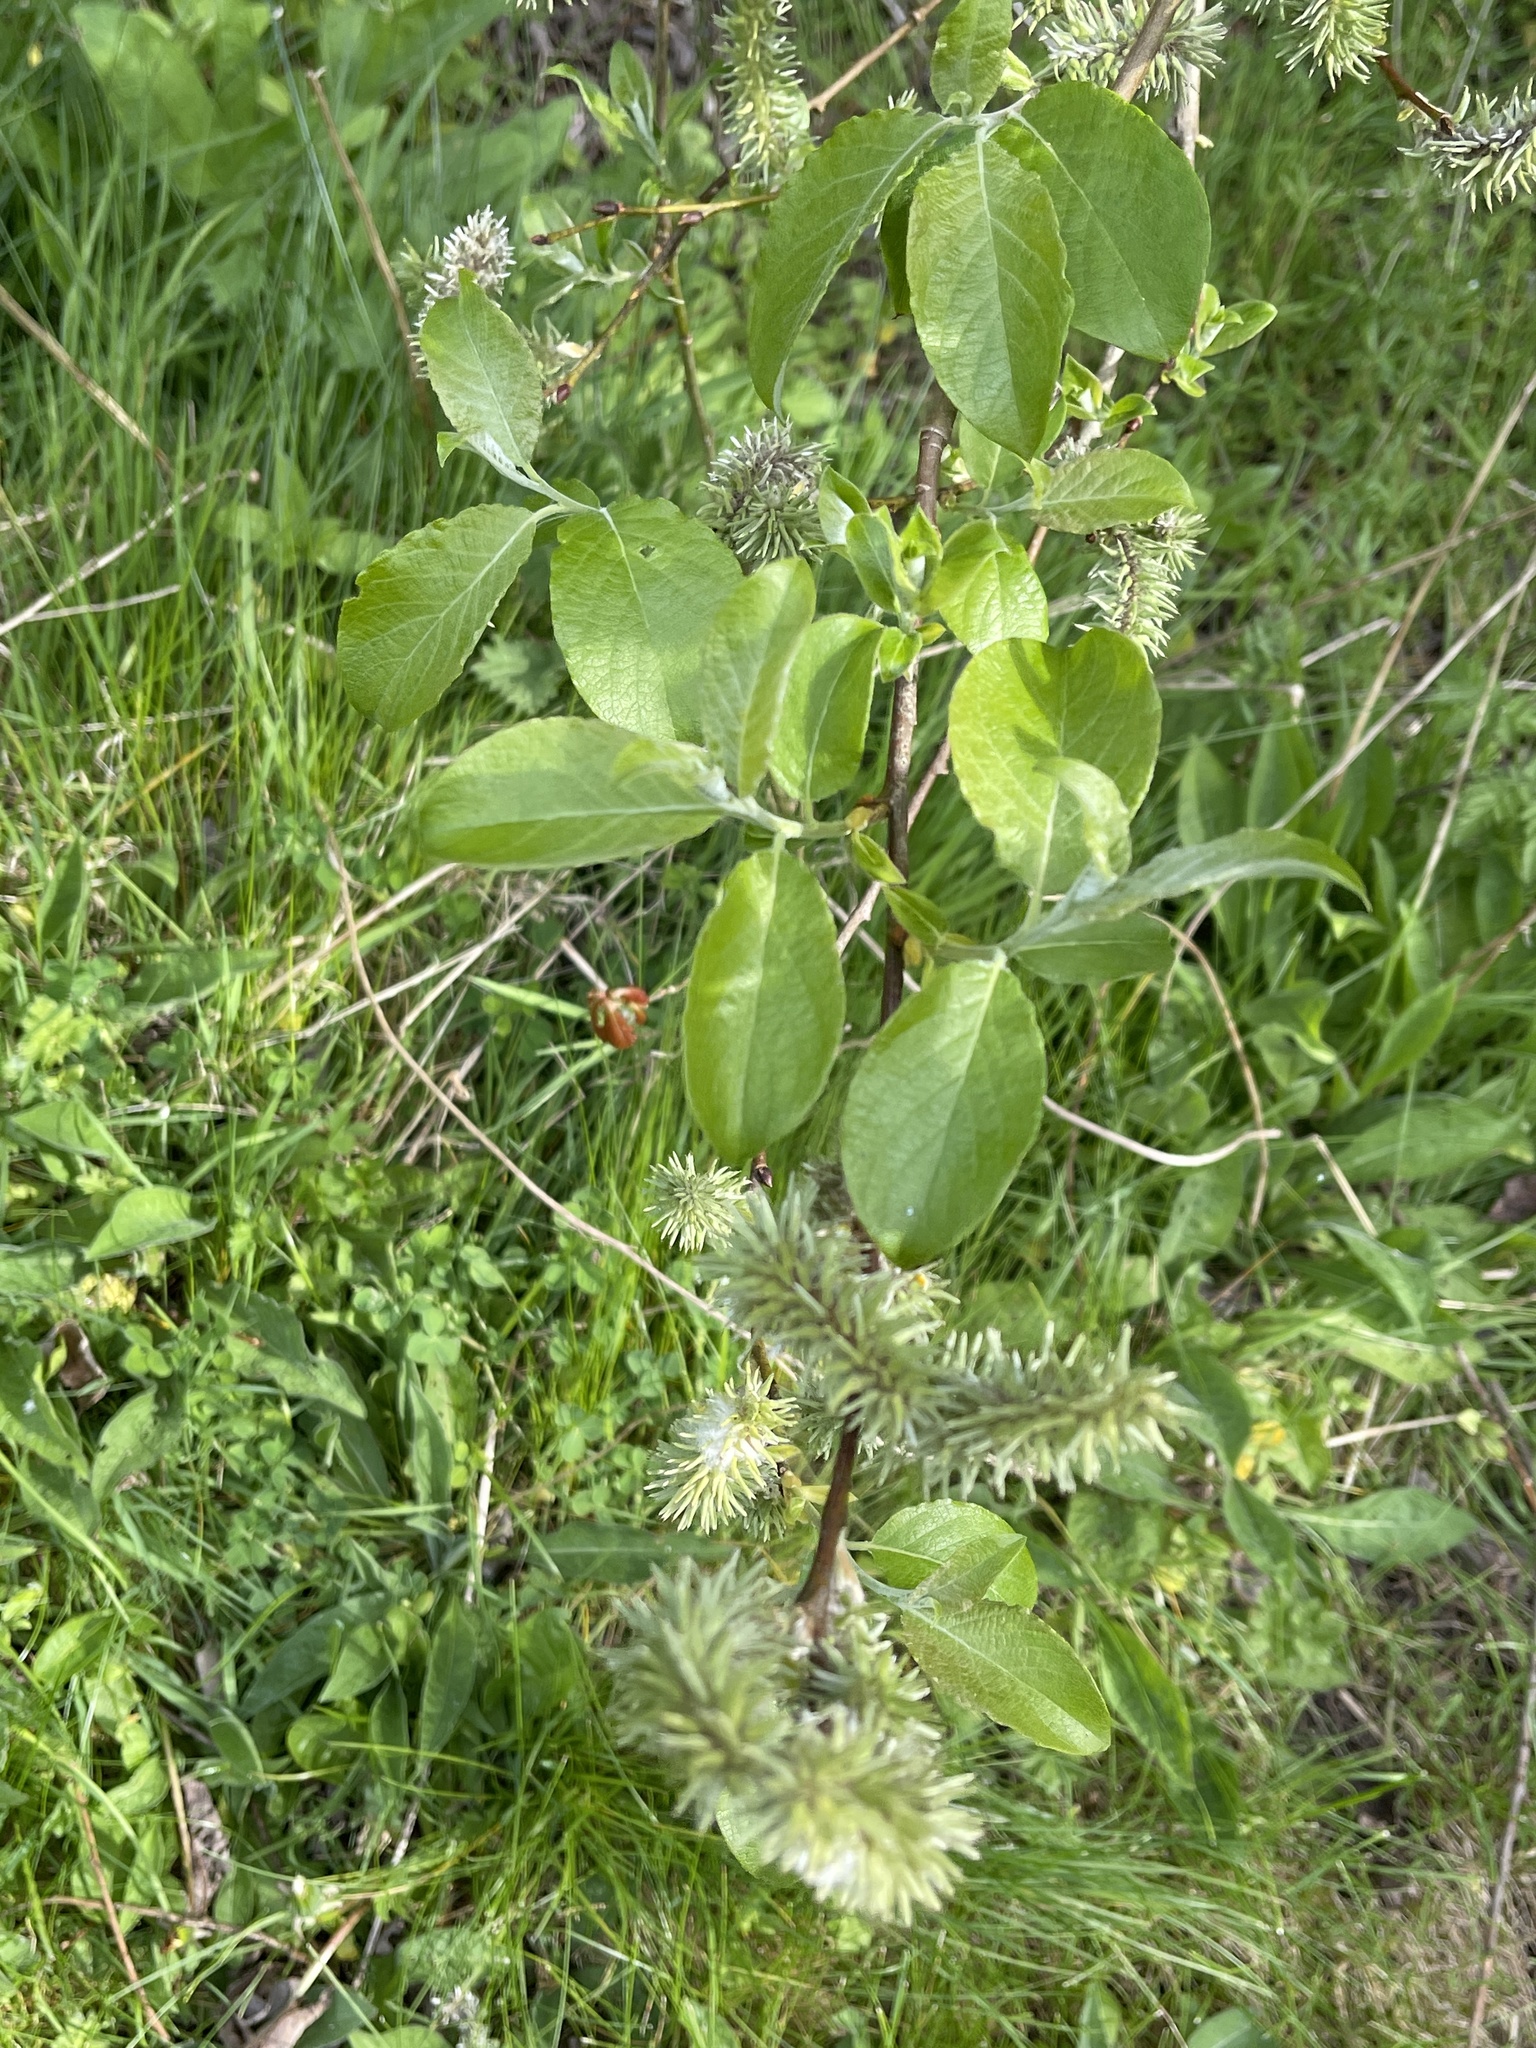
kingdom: Plantae
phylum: Tracheophyta
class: Magnoliopsida
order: Malpighiales
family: Salicaceae
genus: Salix
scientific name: Salix caprea
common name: Goat willow
